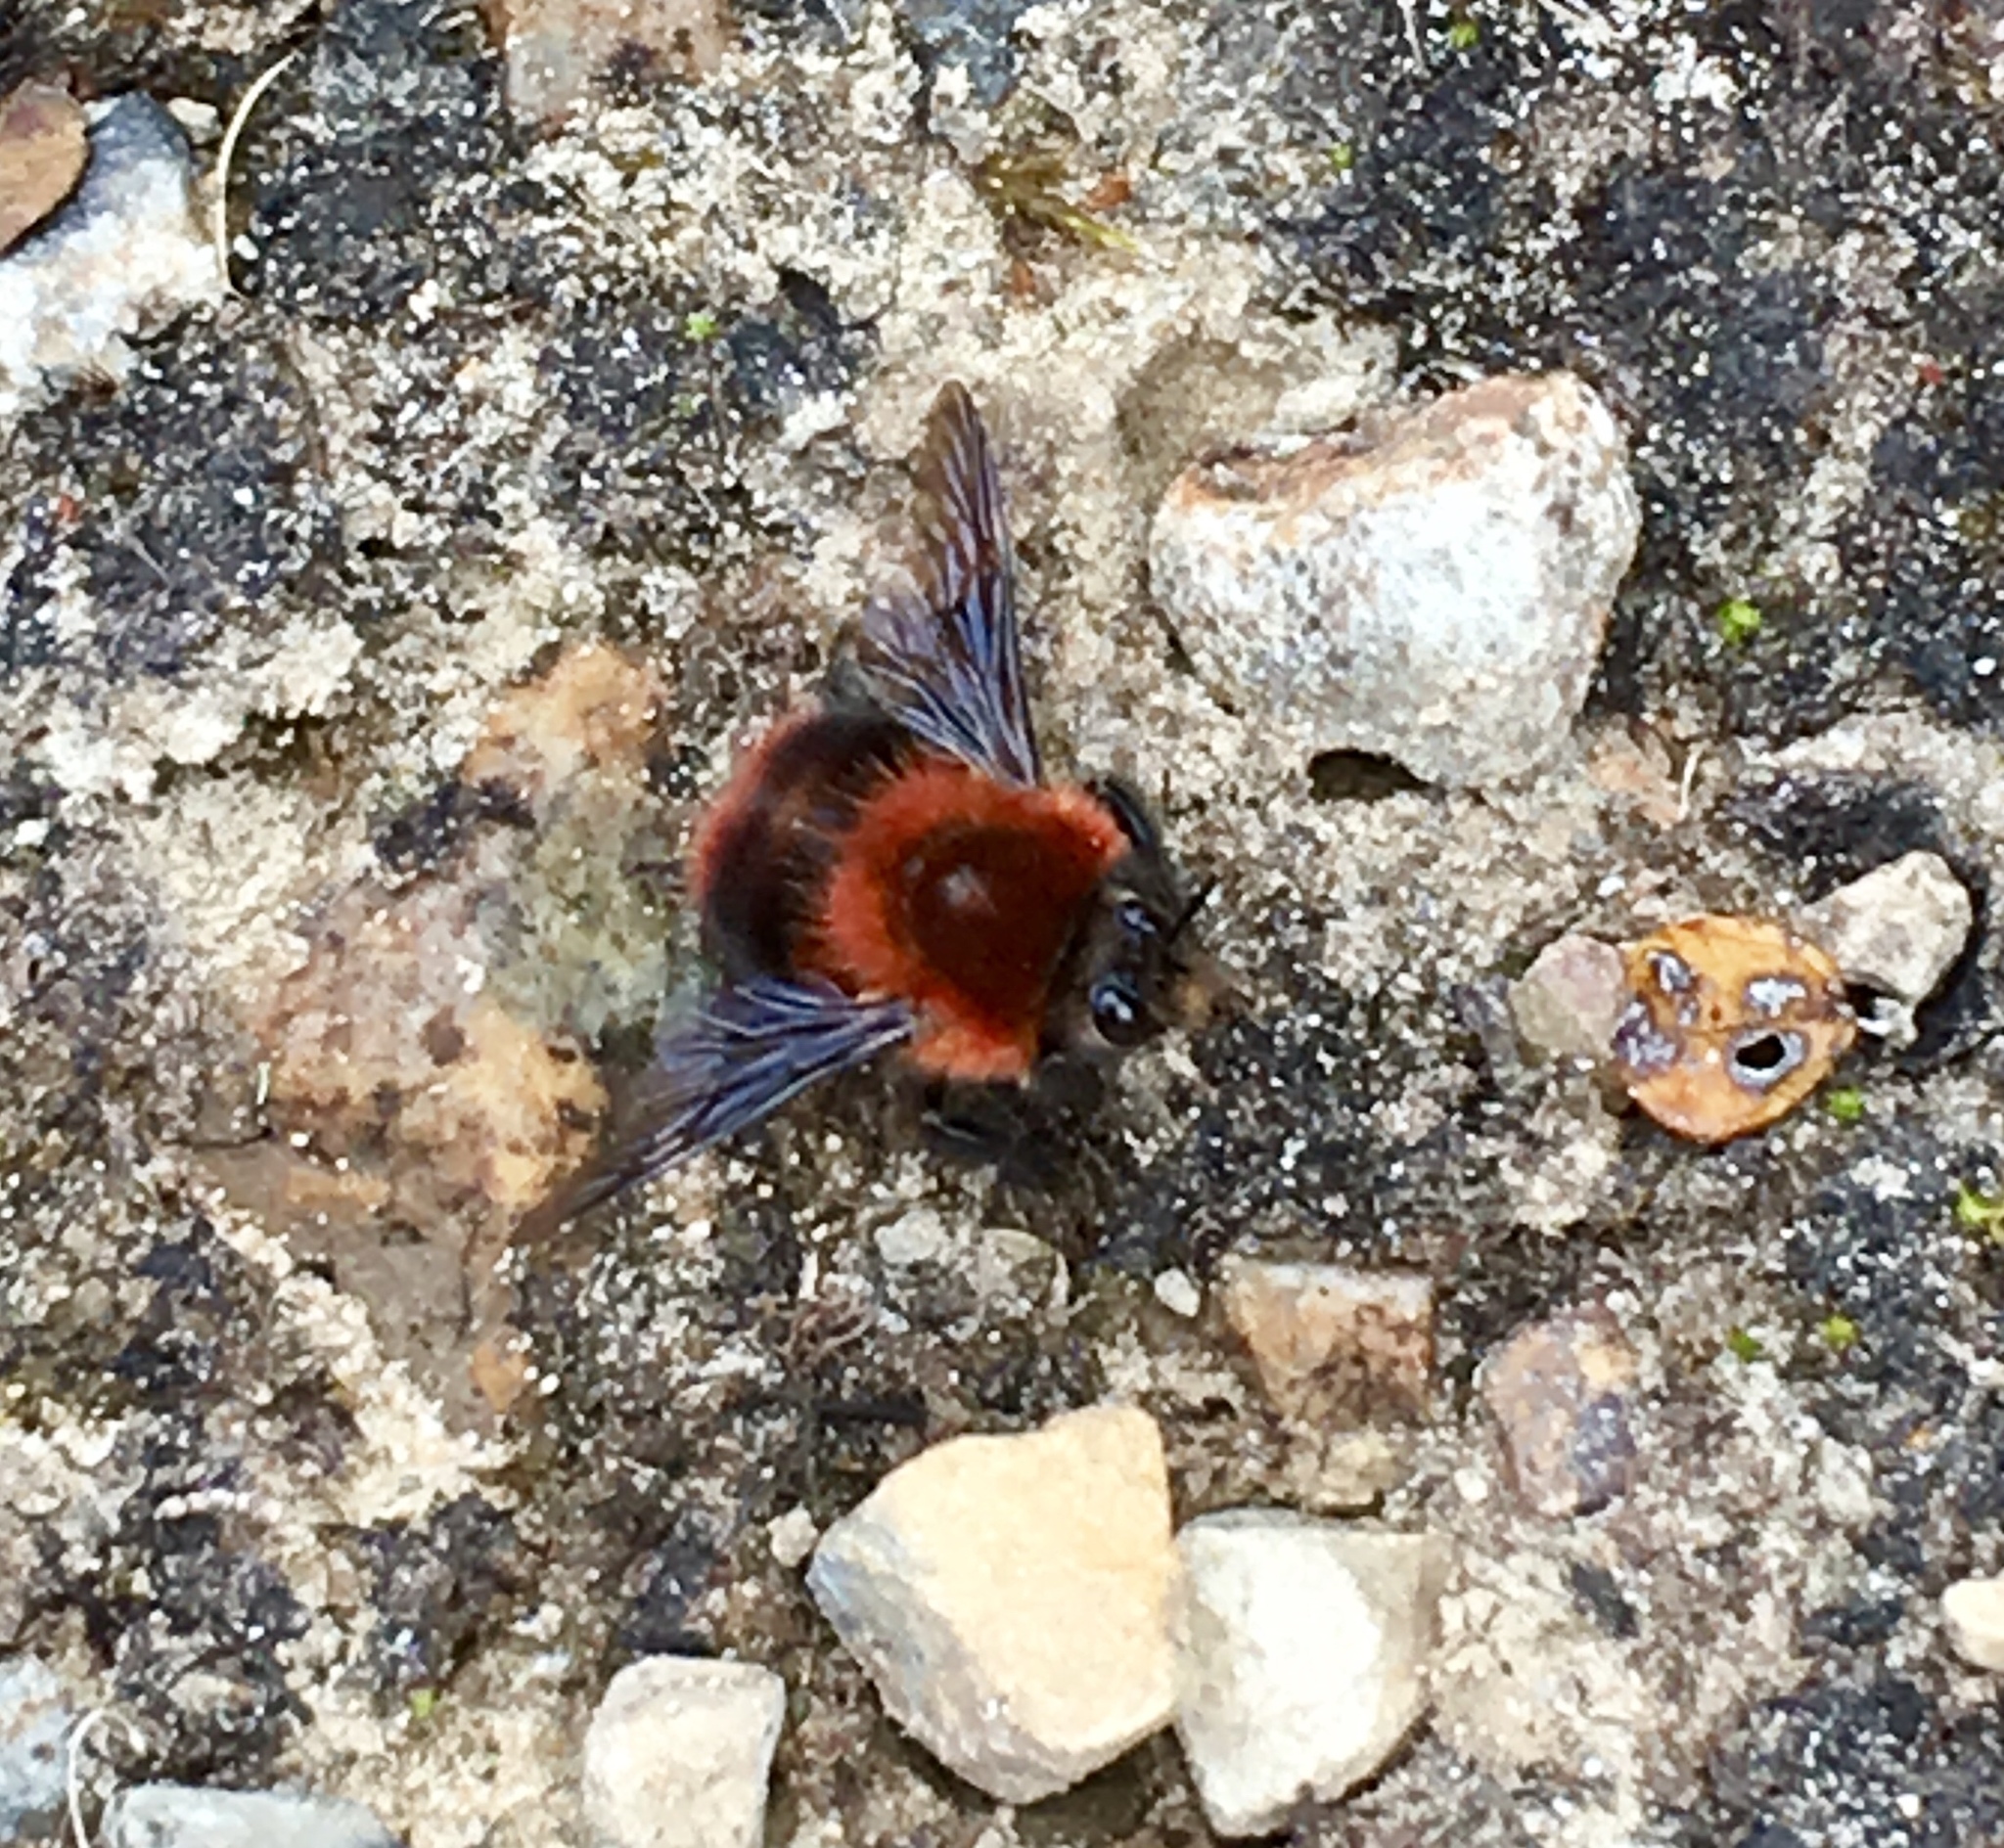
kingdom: Animalia
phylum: Arthropoda
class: Insecta
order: Hymenoptera
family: Apidae
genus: Bombus
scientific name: Bombus rubicundus
